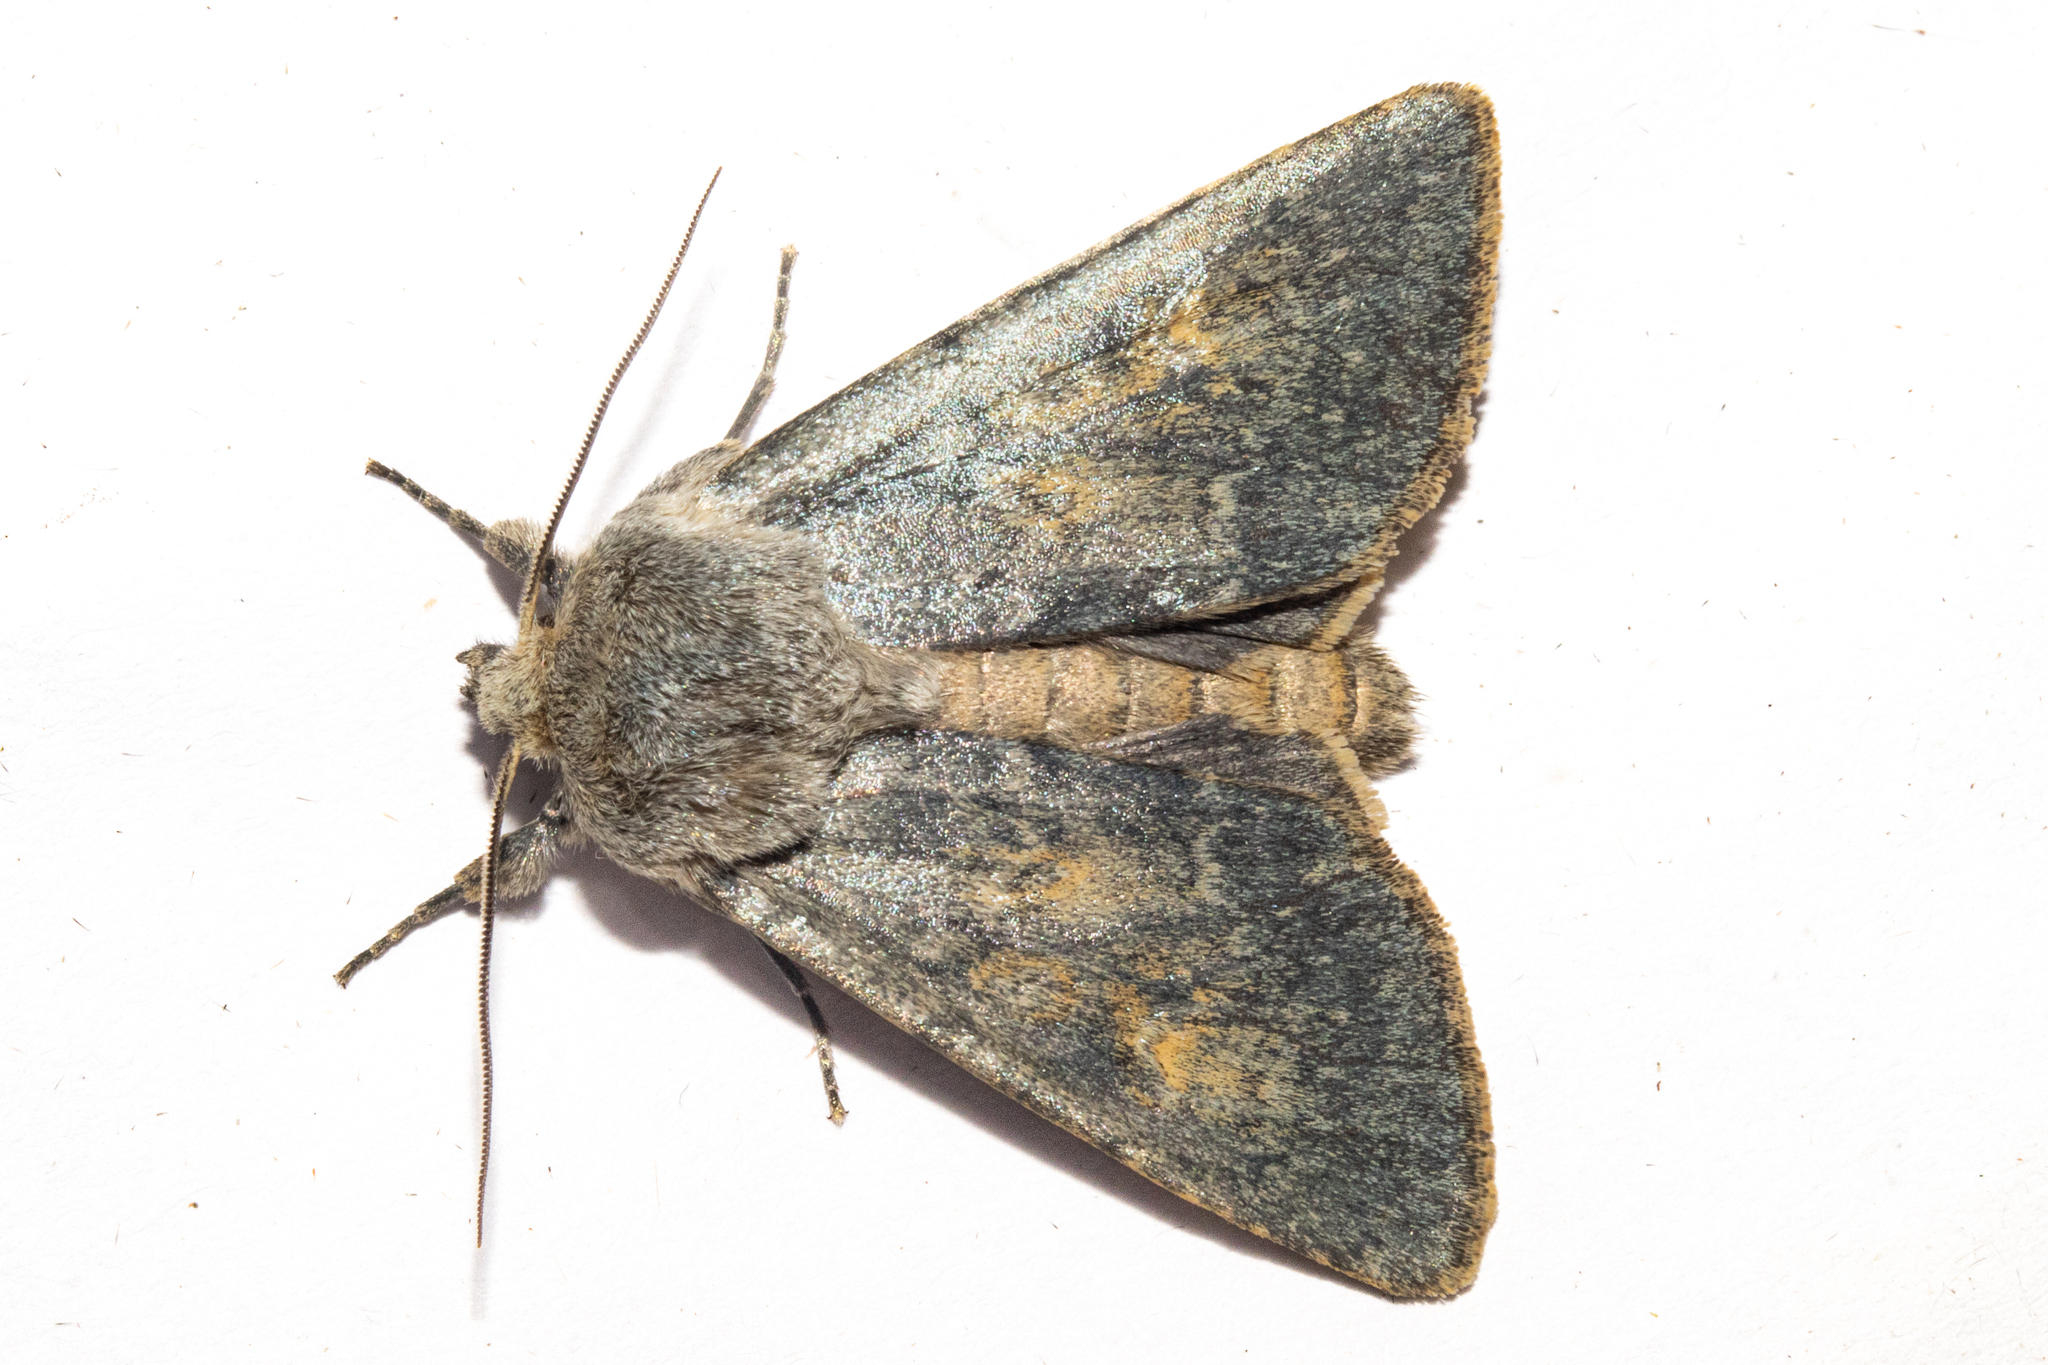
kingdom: Animalia
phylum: Arthropoda
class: Insecta
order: Lepidoptera
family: Noctuidae
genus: Ichneutica
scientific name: Ichneutica
